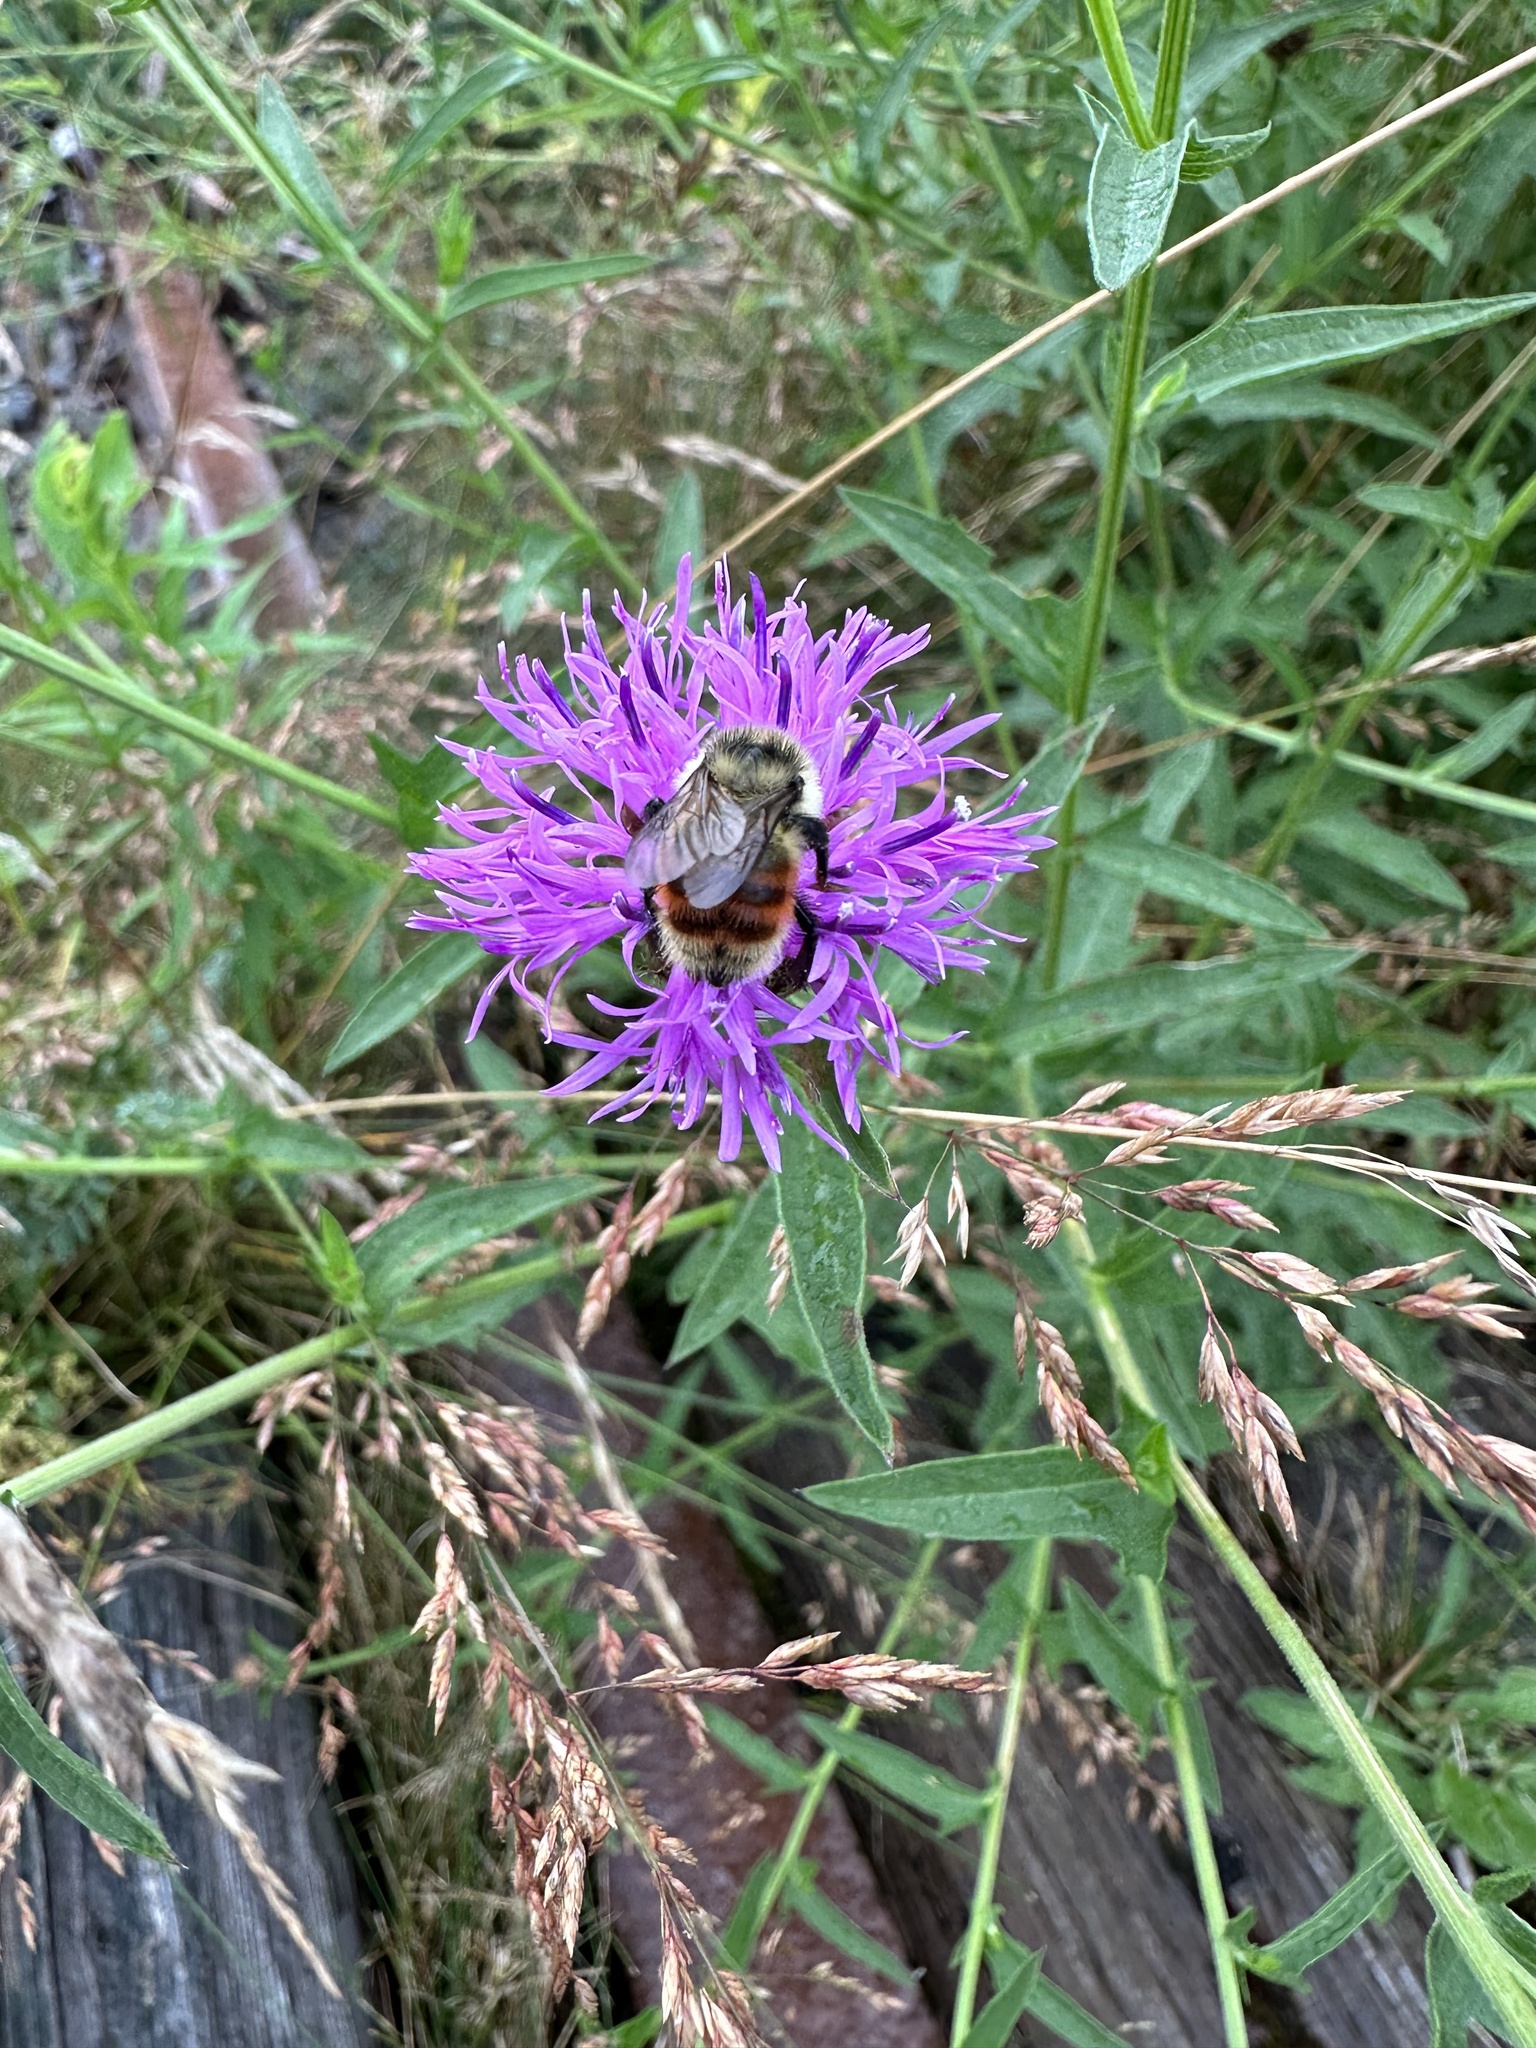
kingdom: Animalia
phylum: Arthropoda
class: Insecta
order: Hymenoptera
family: Apidae
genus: Bombus
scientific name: Bombus rufocinctus
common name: Red-belted bumble bee
